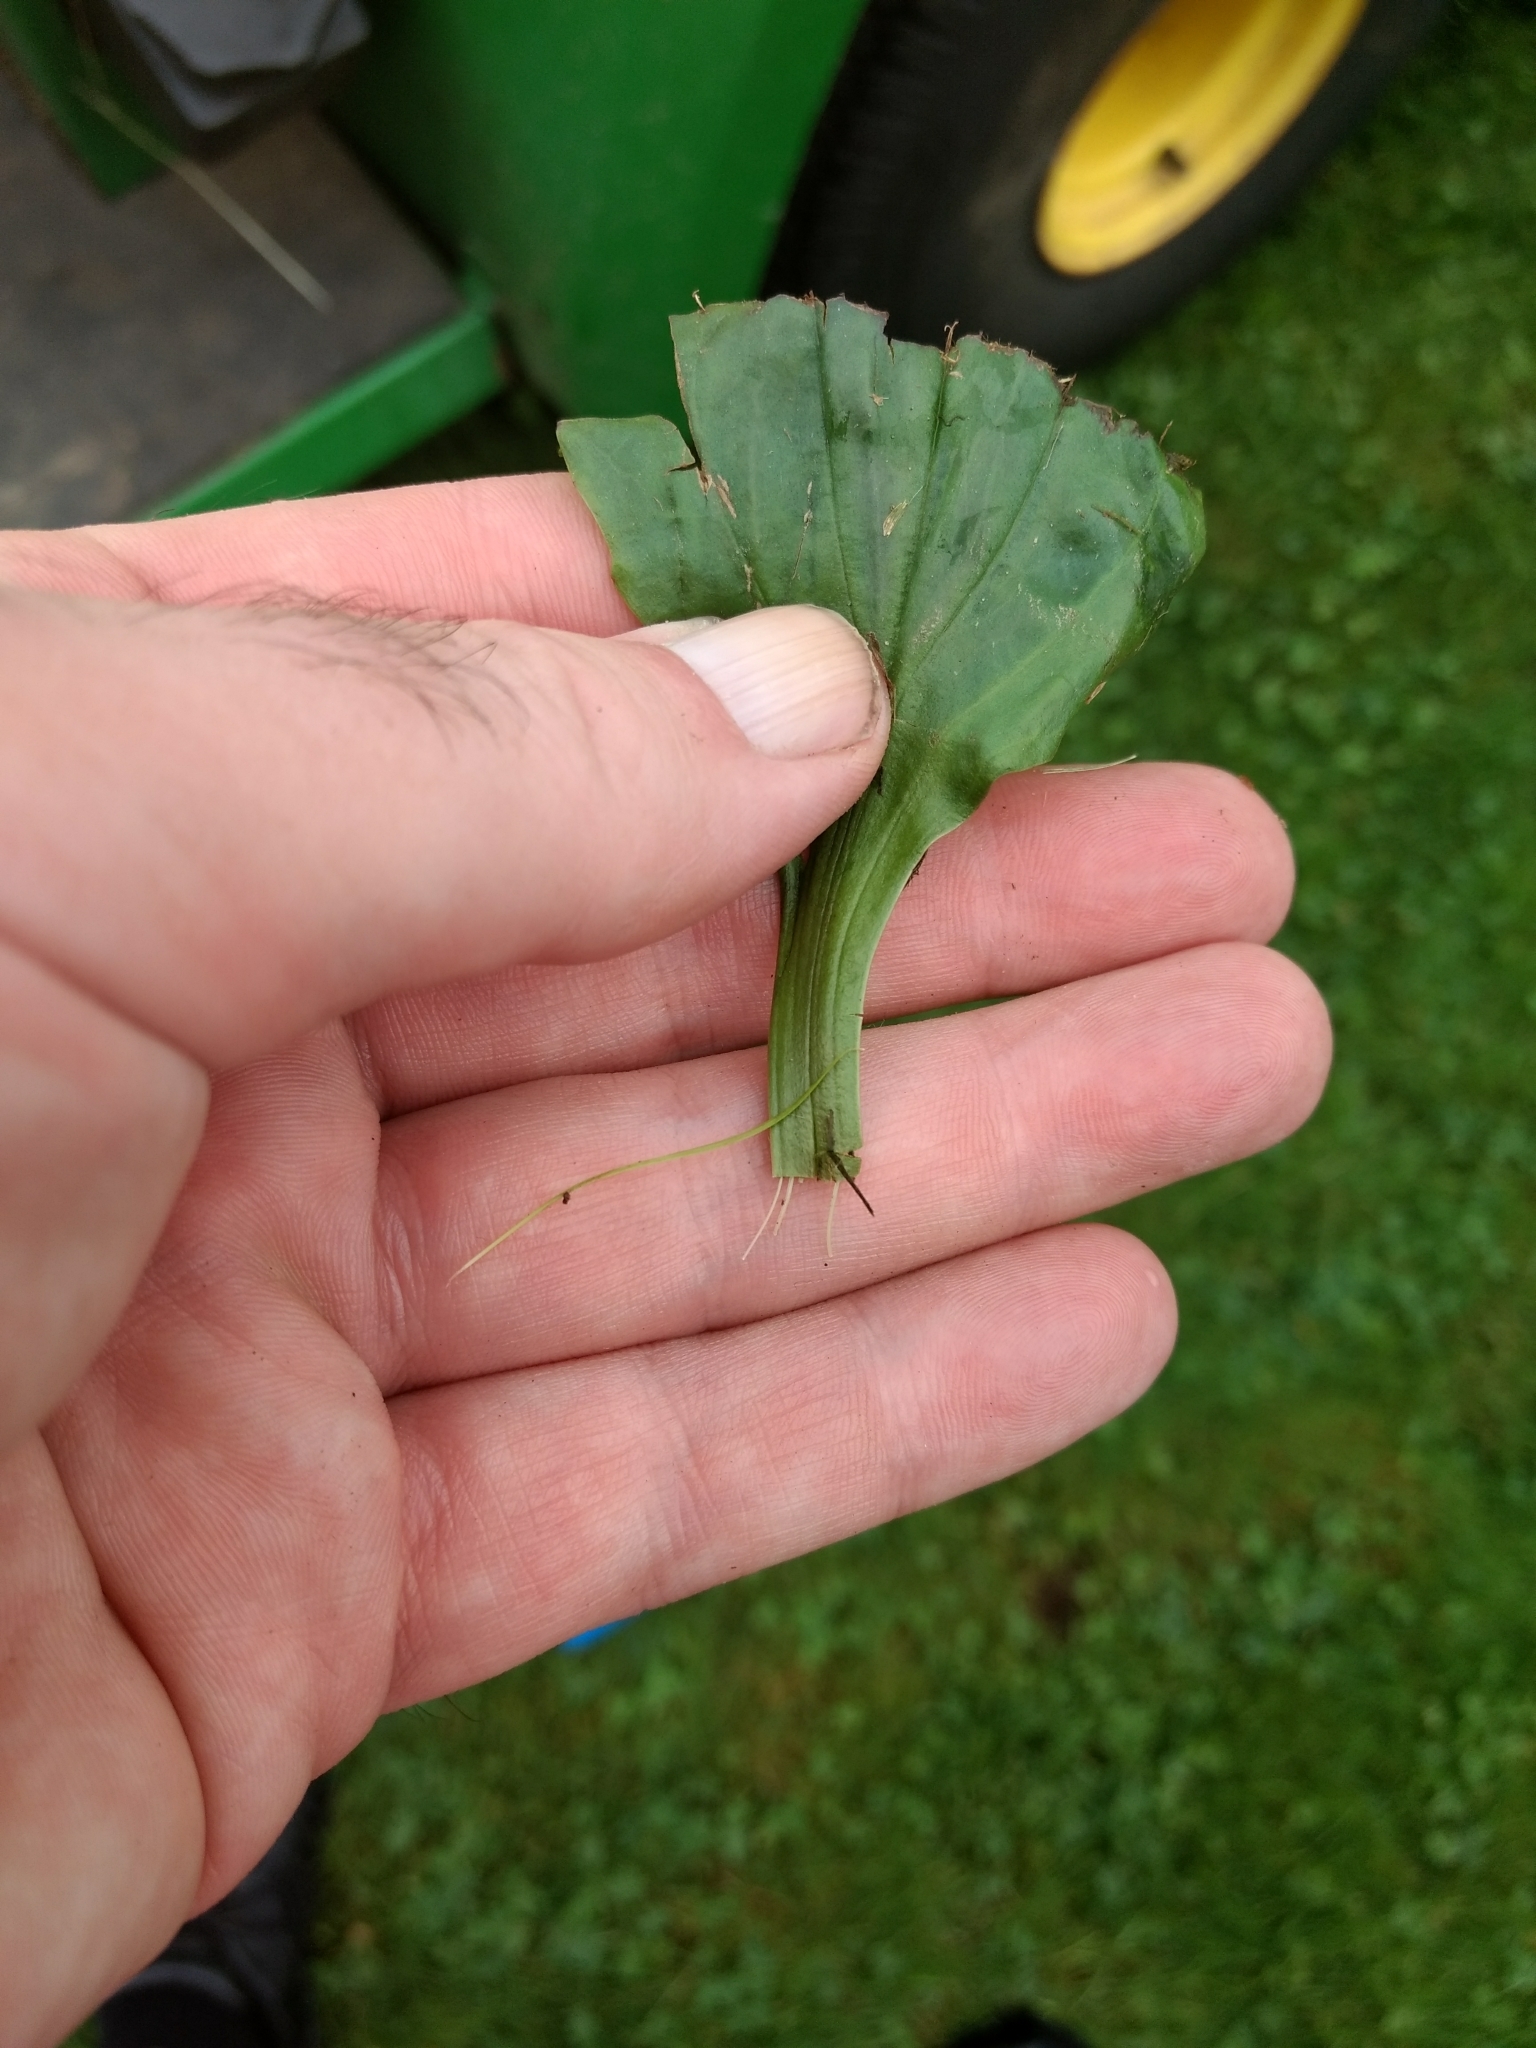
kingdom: Plantae
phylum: Tracheophyta
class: Magnoliopsida
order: Lamiales
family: Plantaginaceae
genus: Plantago
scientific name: Plantago major
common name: Common plantain
